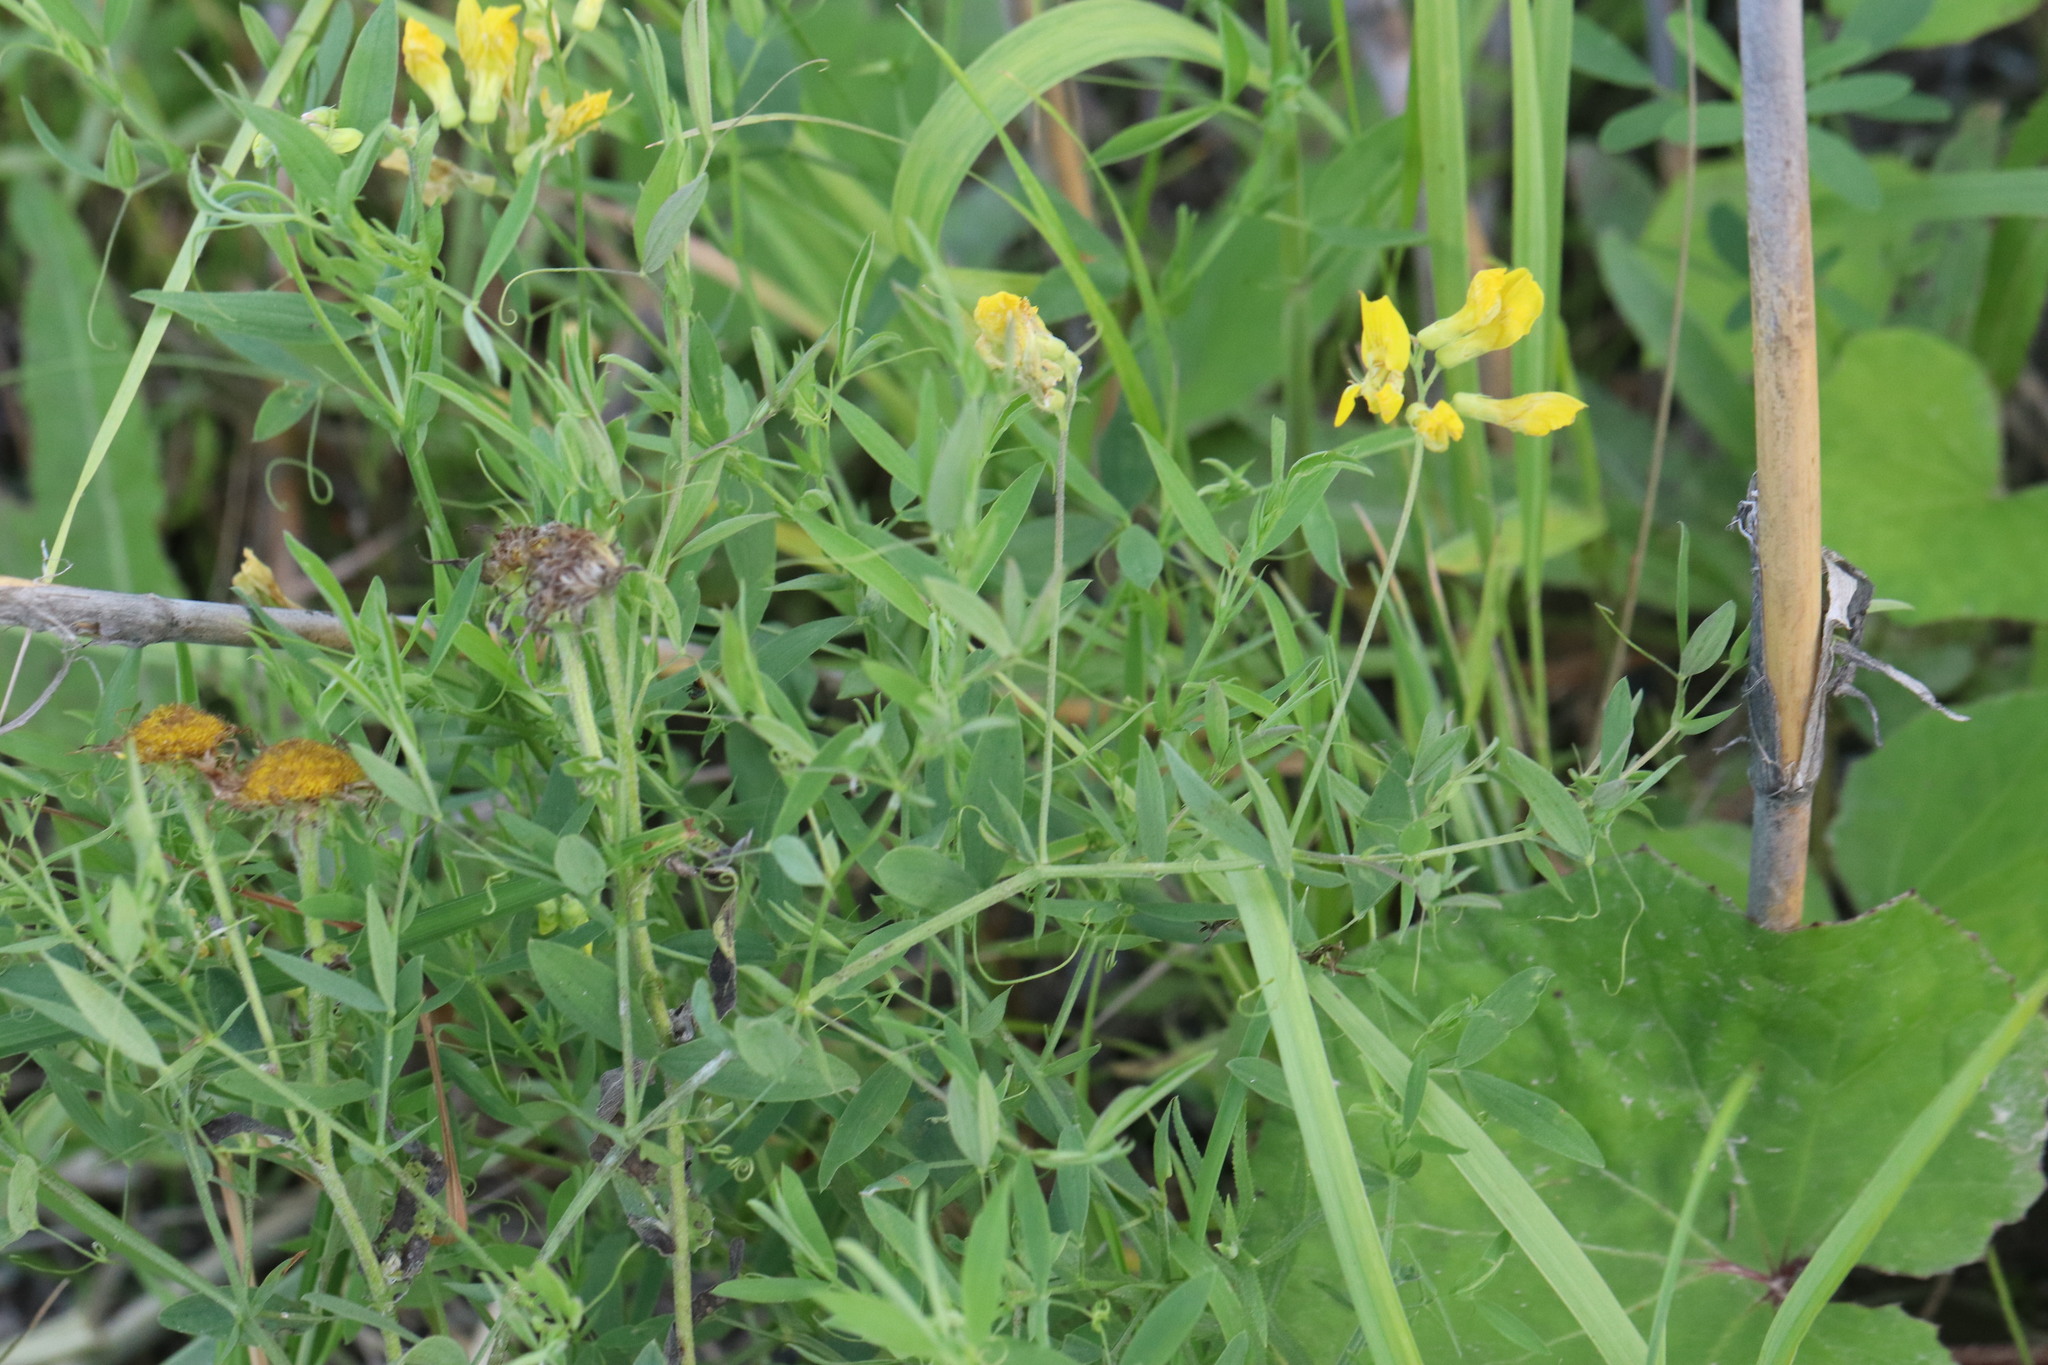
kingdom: Plantae
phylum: Tracheophyta
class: Magnoliopsida
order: Fabales
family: Fabaceae
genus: Lathyrus
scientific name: Lathyrus pratensis
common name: Meadow vetchling
